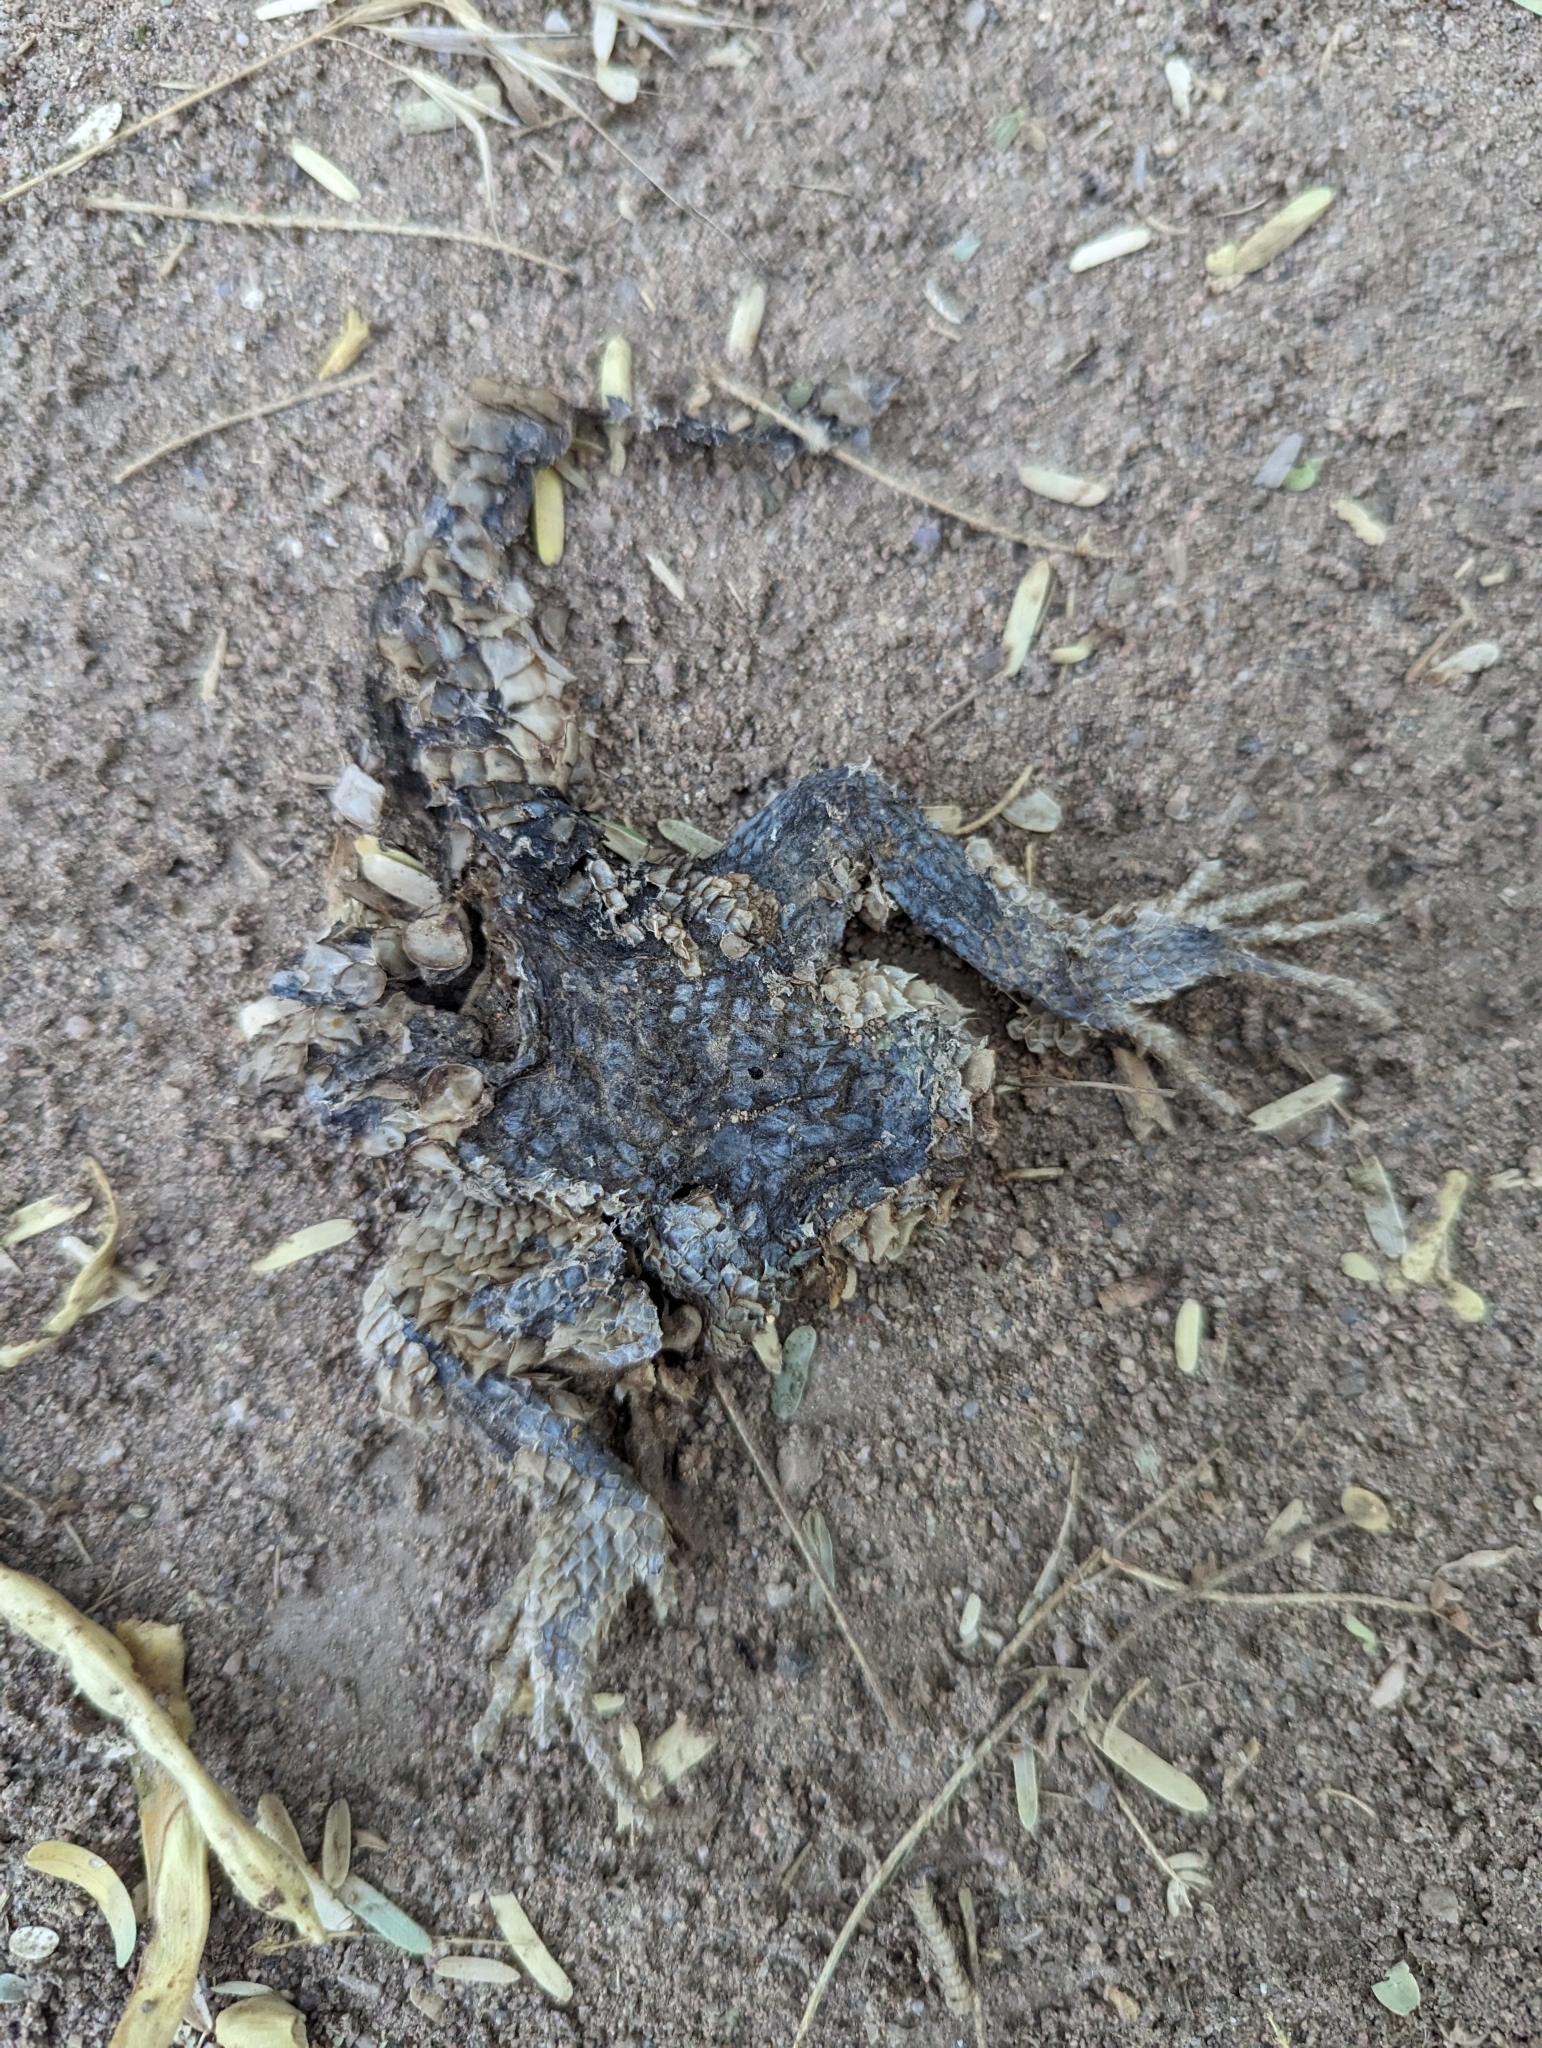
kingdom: Animalia
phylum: Chordata
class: Squamata
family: Phrynosomatidae
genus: Sceloporus
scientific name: Sceloporus magister
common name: Desert spiny lizard
